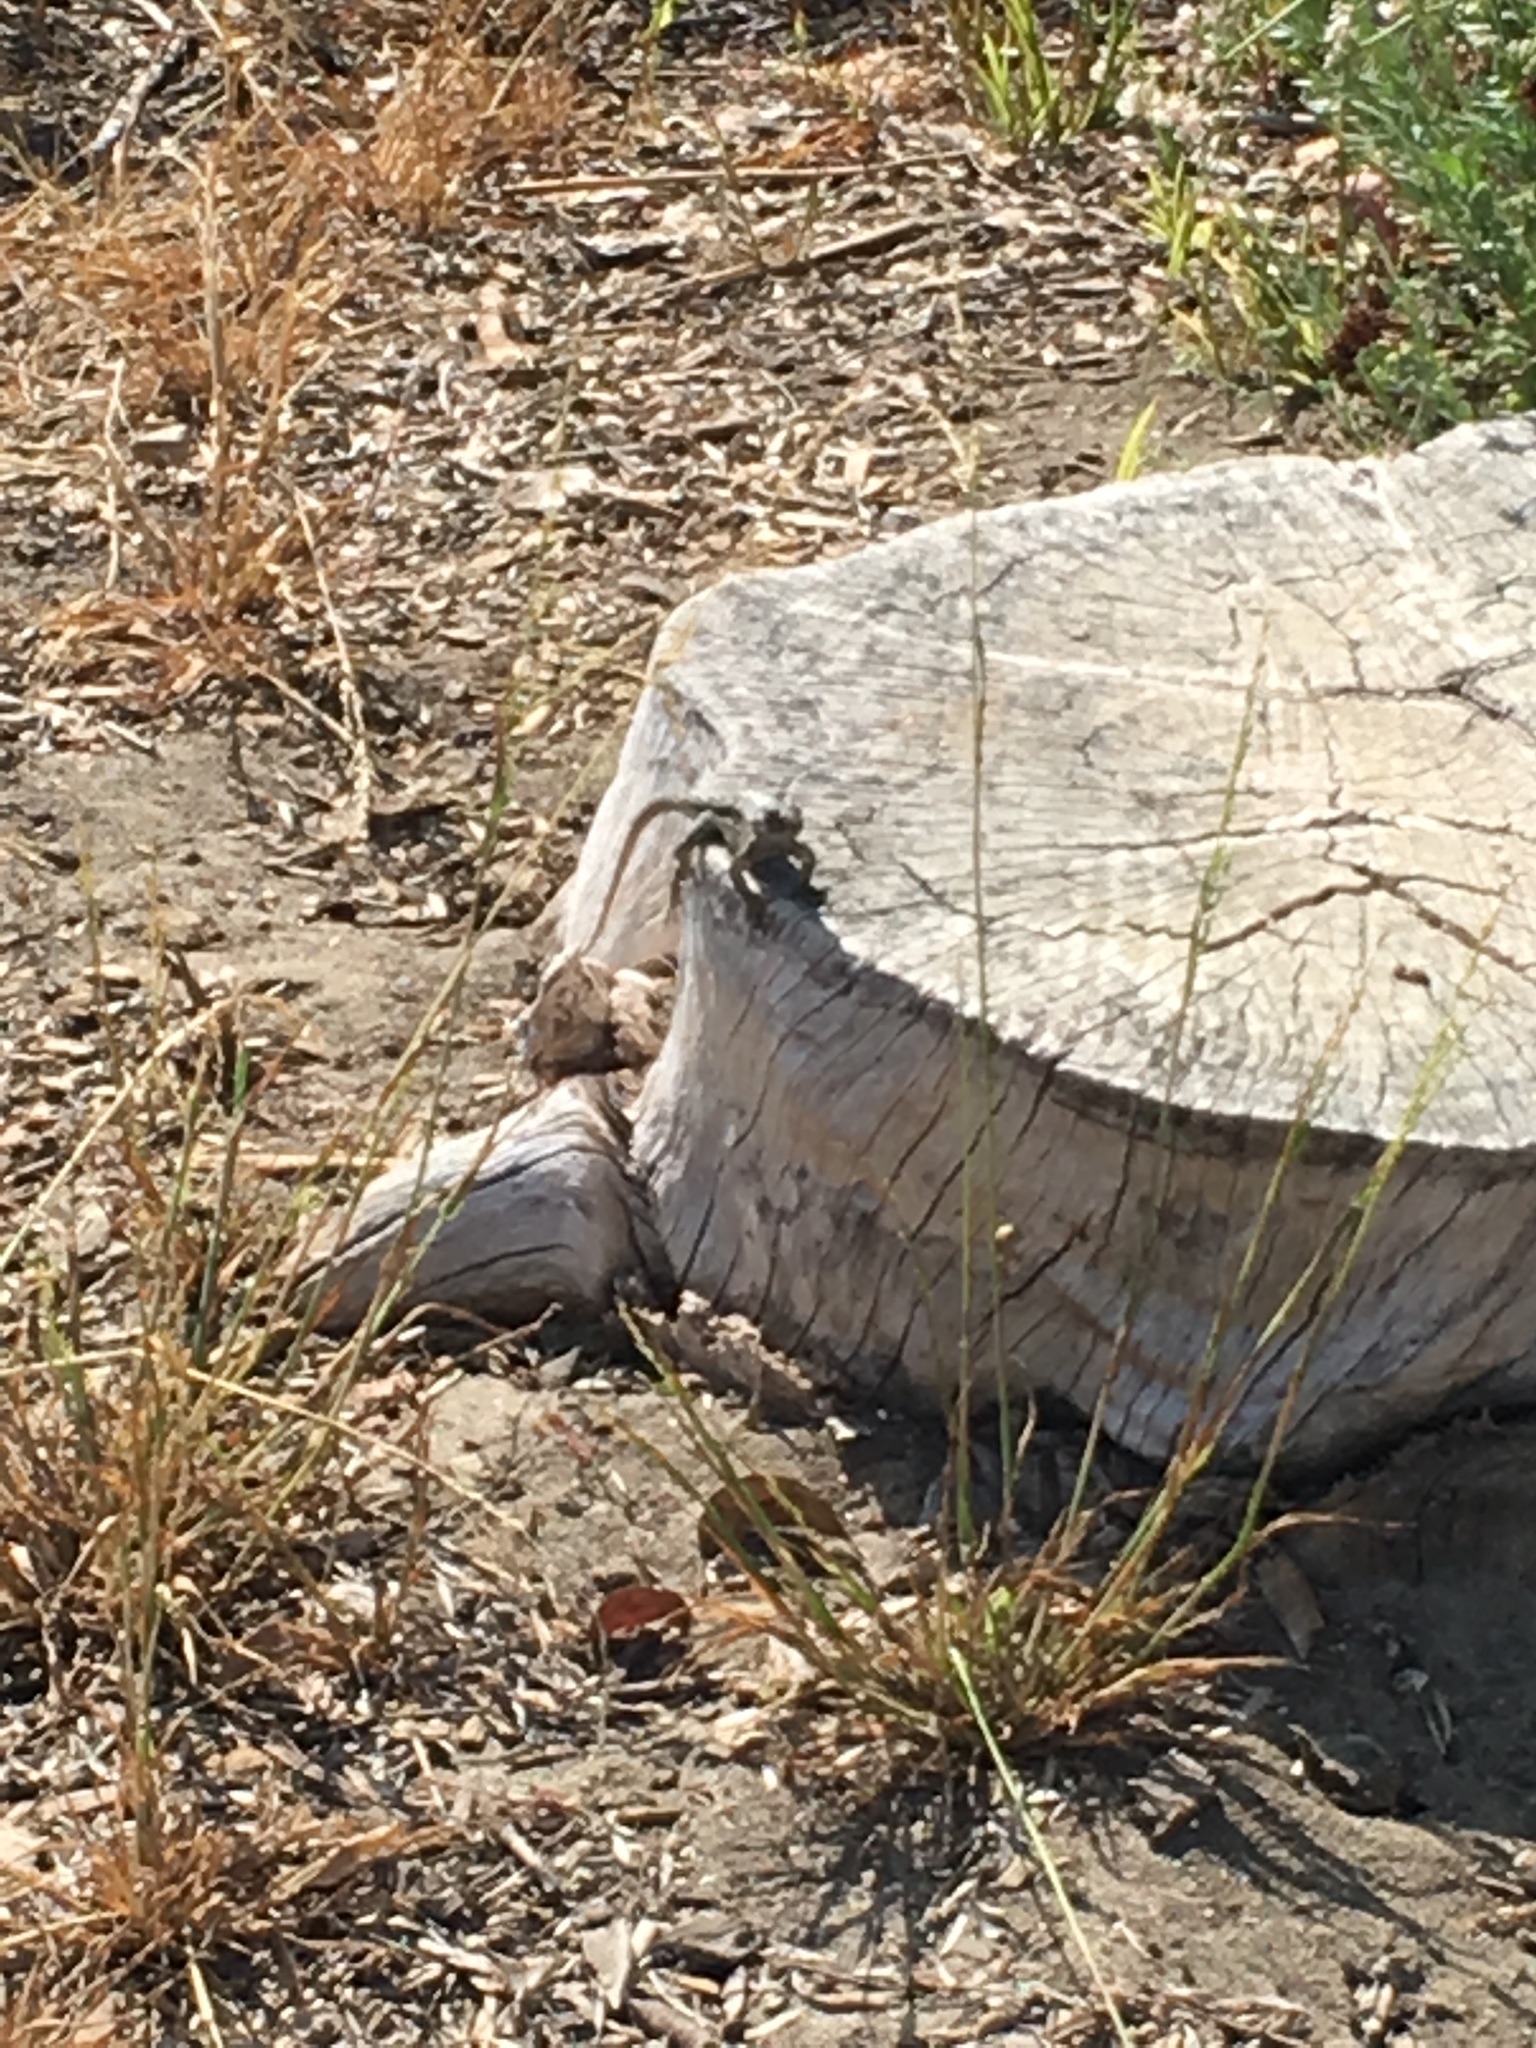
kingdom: Animalia
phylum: Chordata
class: Squamata
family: Phrynosomatidae
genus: Sceloporus
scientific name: Sceloporus occidentalis
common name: Western fence lizard
